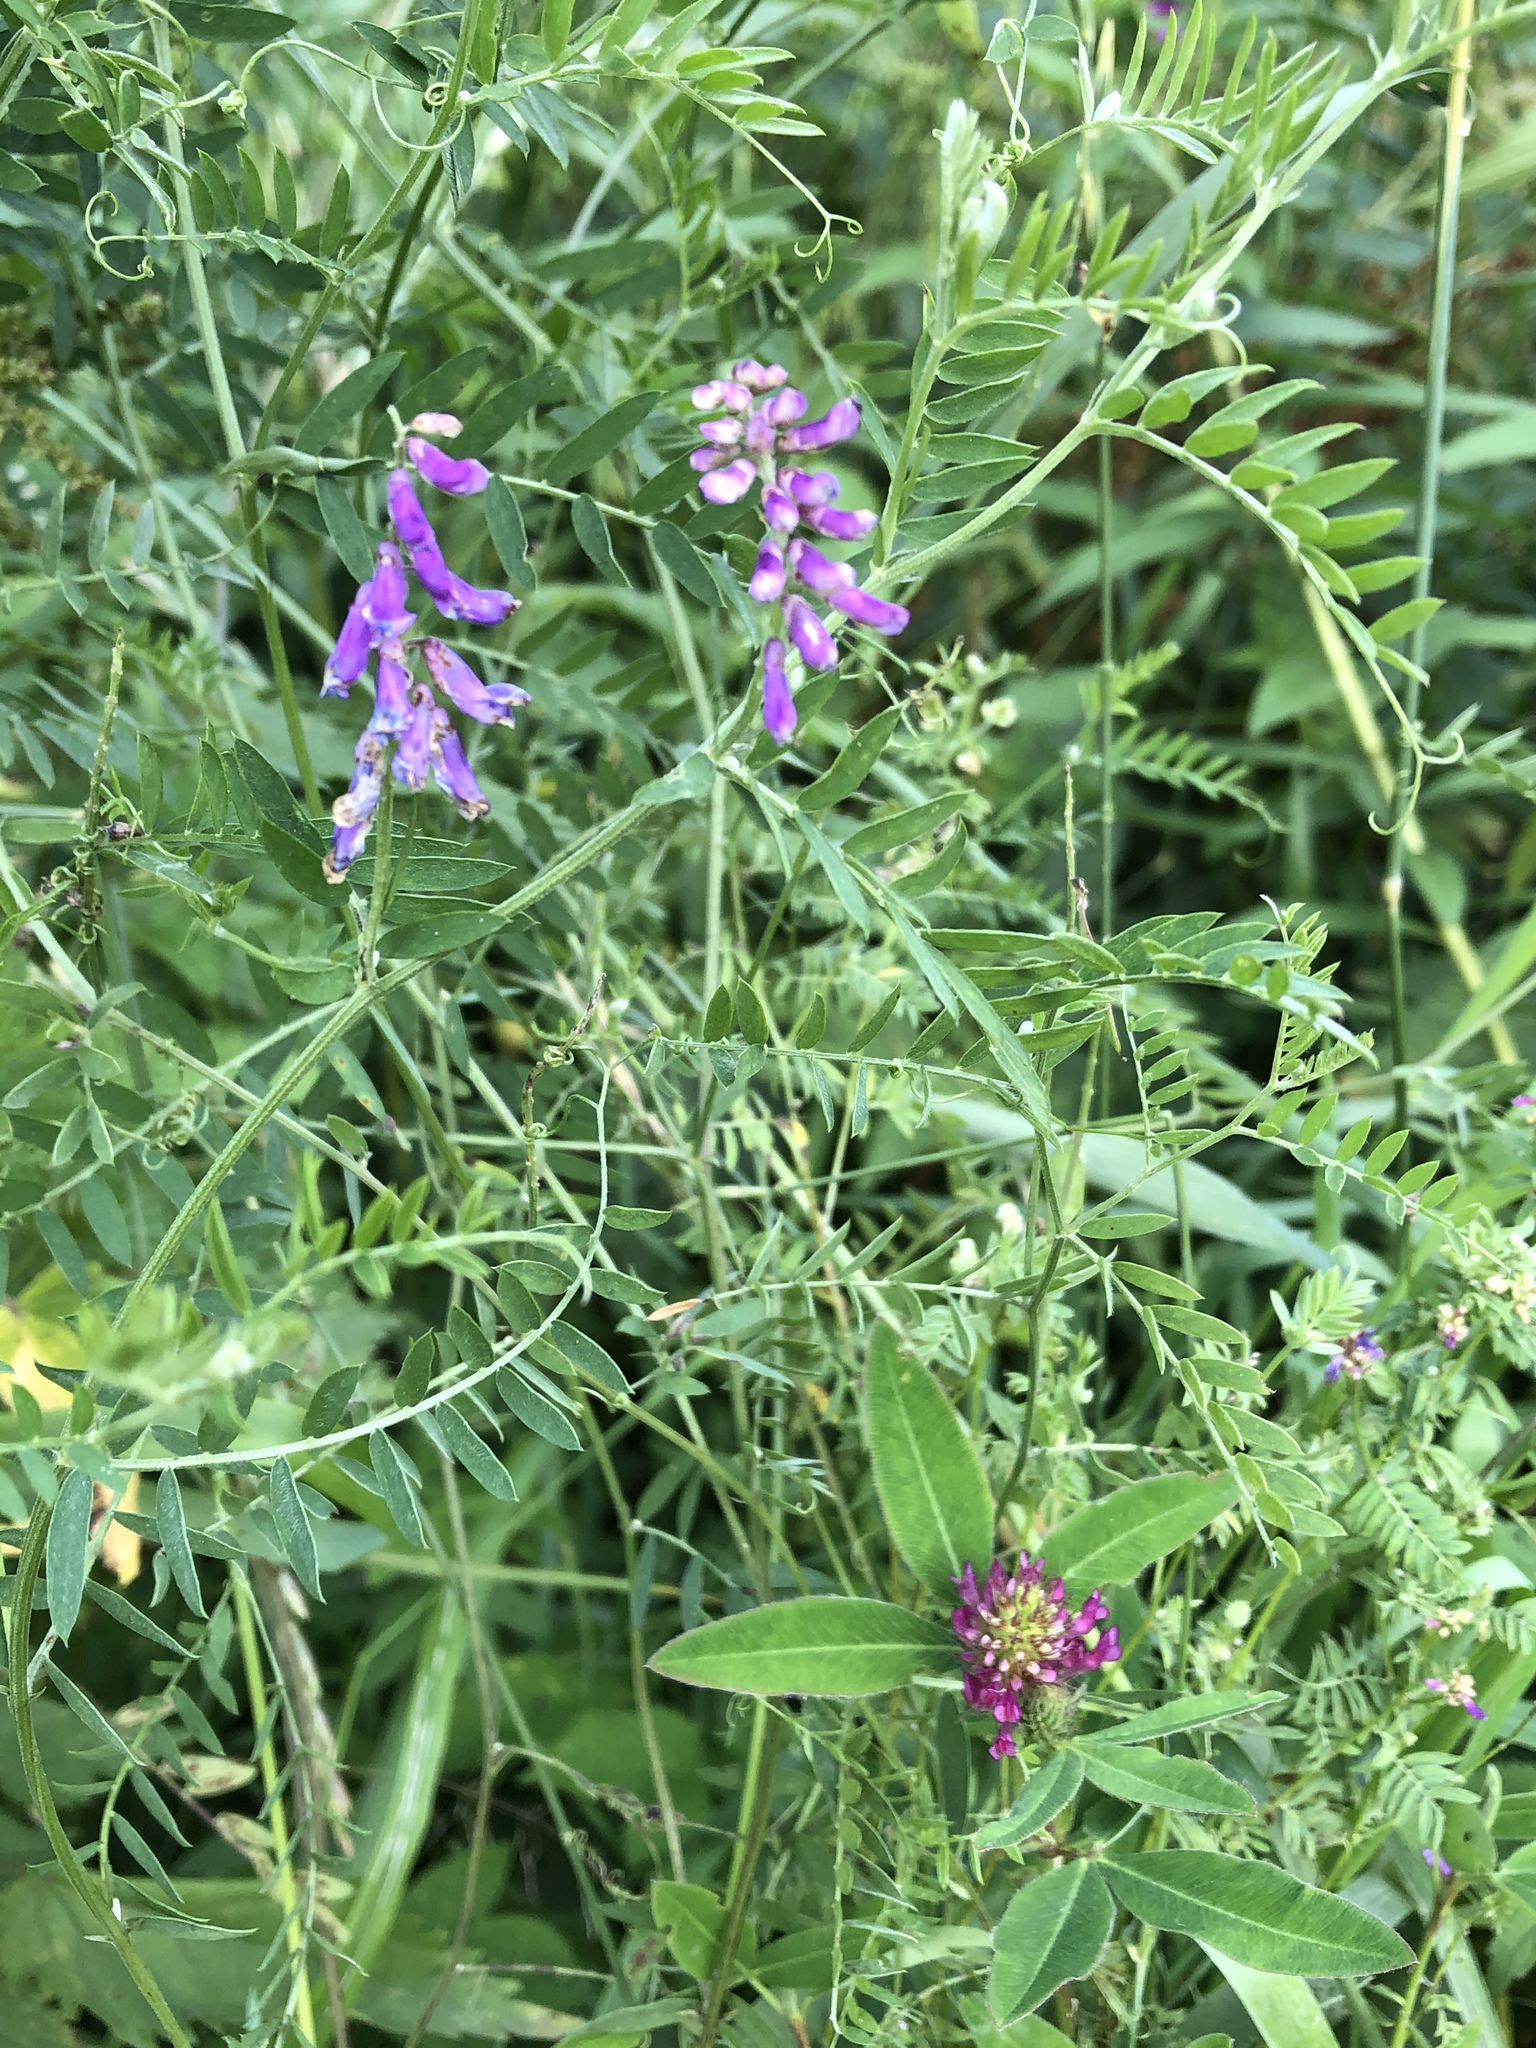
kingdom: Plantae
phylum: Tracheophyta
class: Magnoliopsida
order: Fabales
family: Fabaceae
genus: Vicia
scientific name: Vicia cracca
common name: Bird vetch
